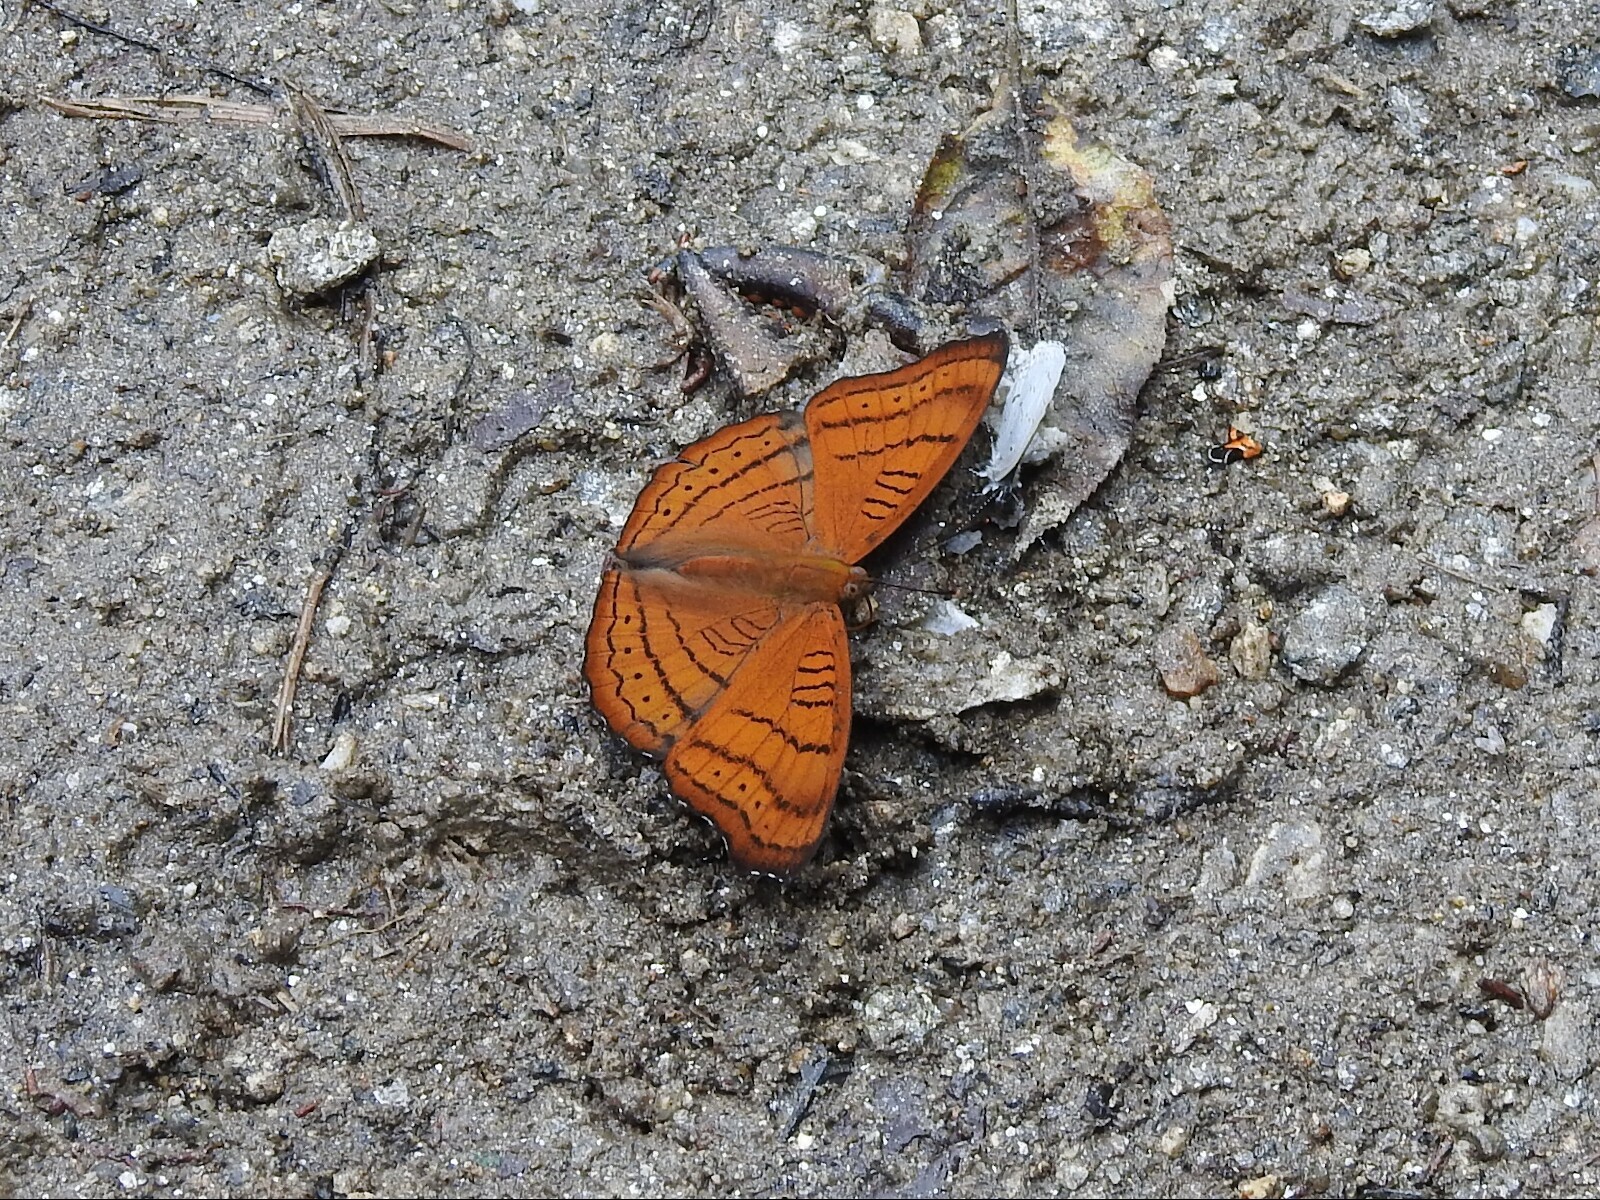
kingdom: Animalia
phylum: Arthropoda
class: Insecta
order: Lepidoptera
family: Nymphalidae
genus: Pseudergolis
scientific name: Pseudergolis wedah
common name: Tabby
